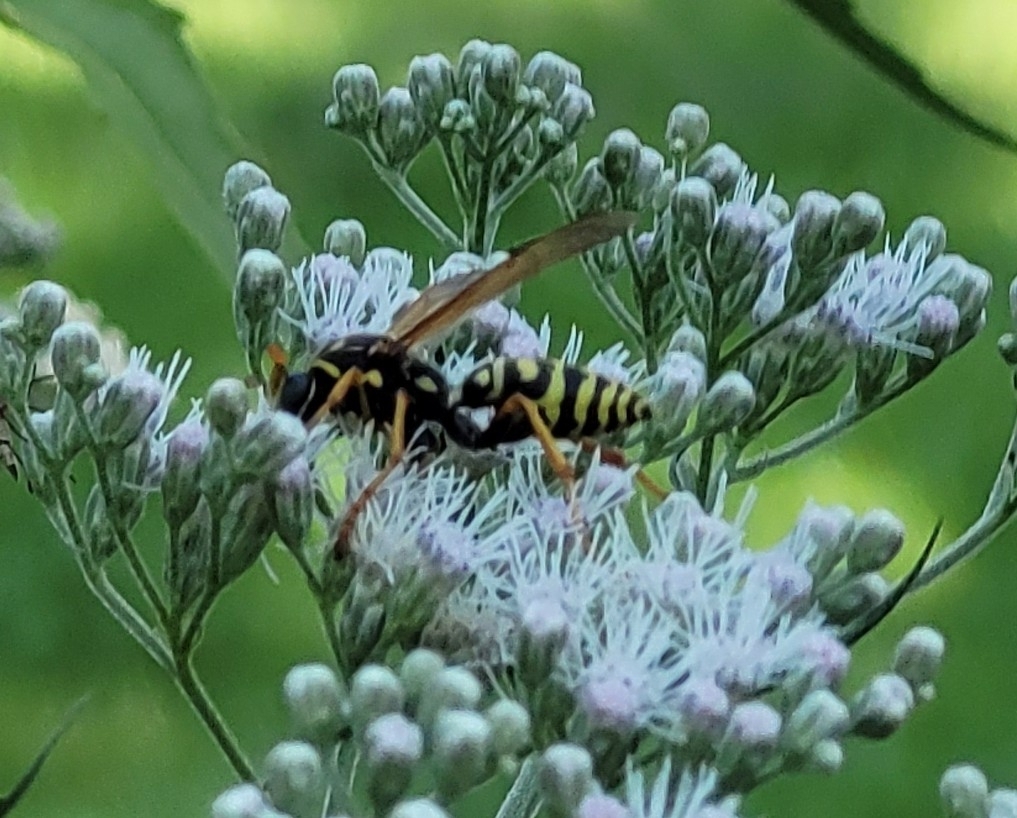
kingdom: Animalia
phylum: Arthropoda
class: Insecta
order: Hymenoptera
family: Eumenidae
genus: Polistes
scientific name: Polistes dominula
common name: Paper wasp
